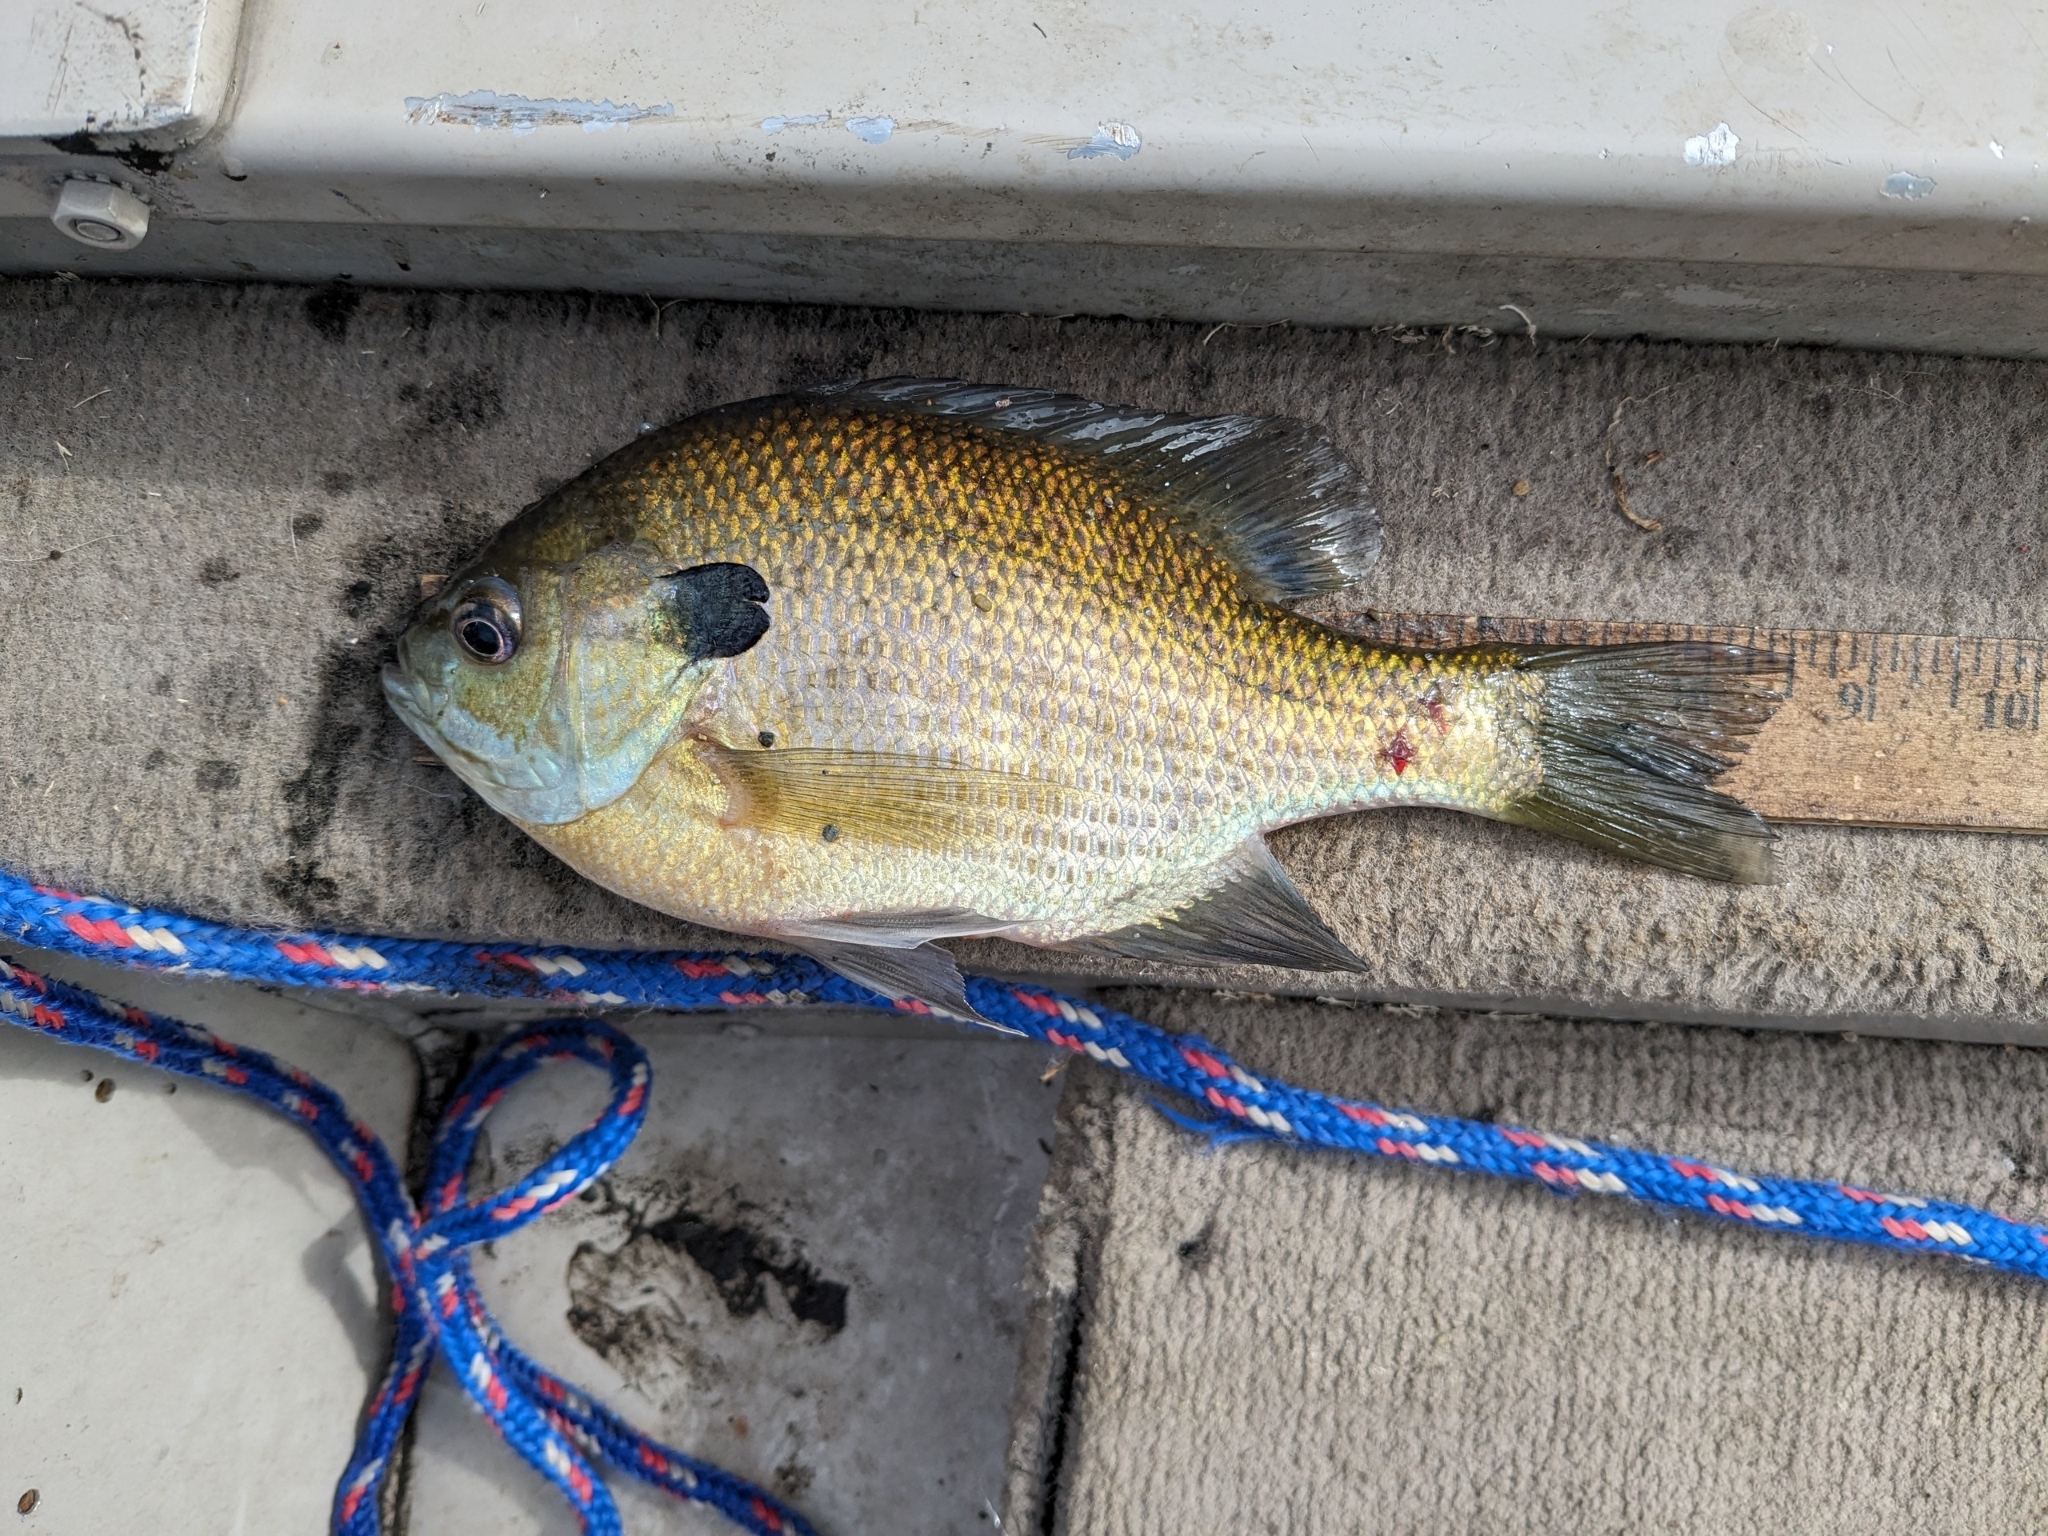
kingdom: Animalia
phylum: Chordata
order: Perciformes
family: Centrarchidae
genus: Lepomis
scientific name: Lepomis macrochirus
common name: Bluegill
